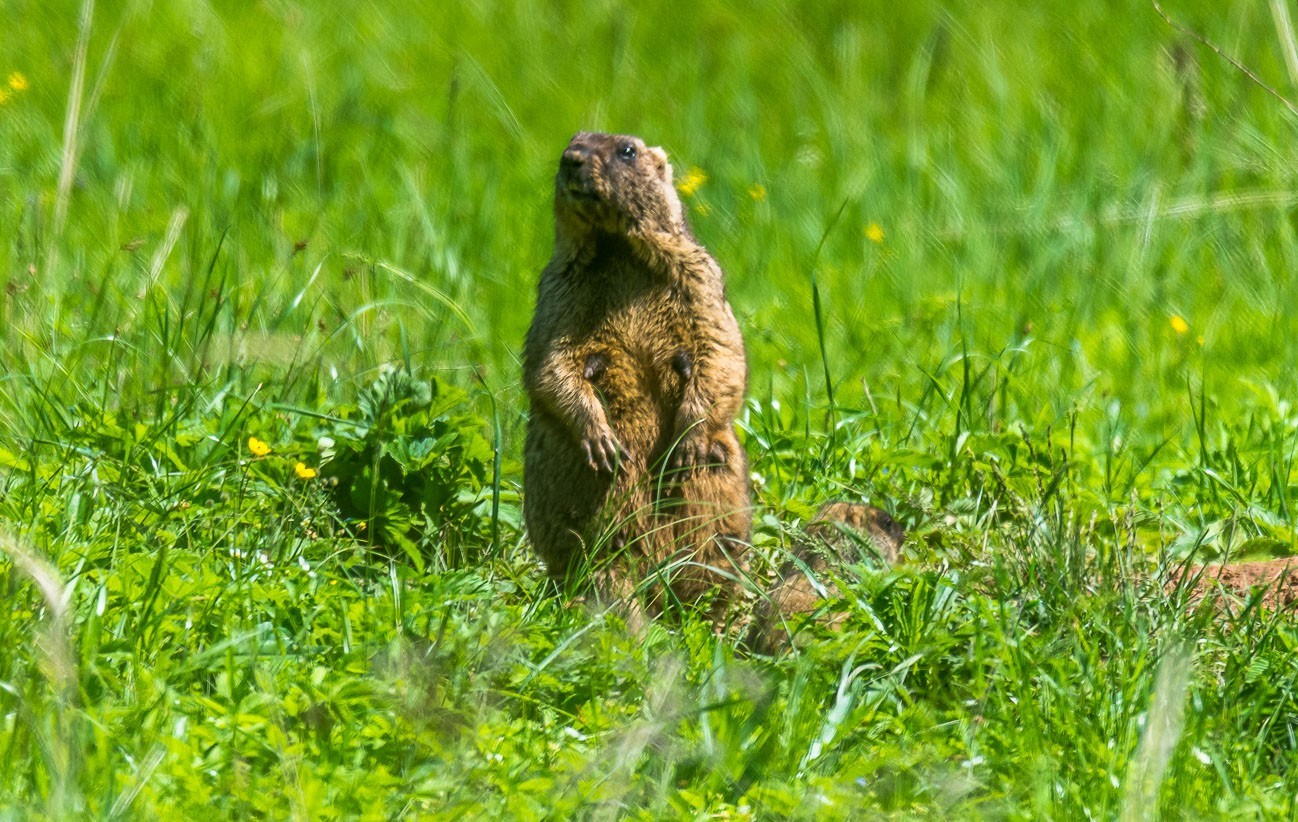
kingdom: Animalia
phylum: Chordata
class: Mammalia
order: Rodentia
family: Sciuridae
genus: Marmota
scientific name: Marmota bobak
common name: Bobak marmot
